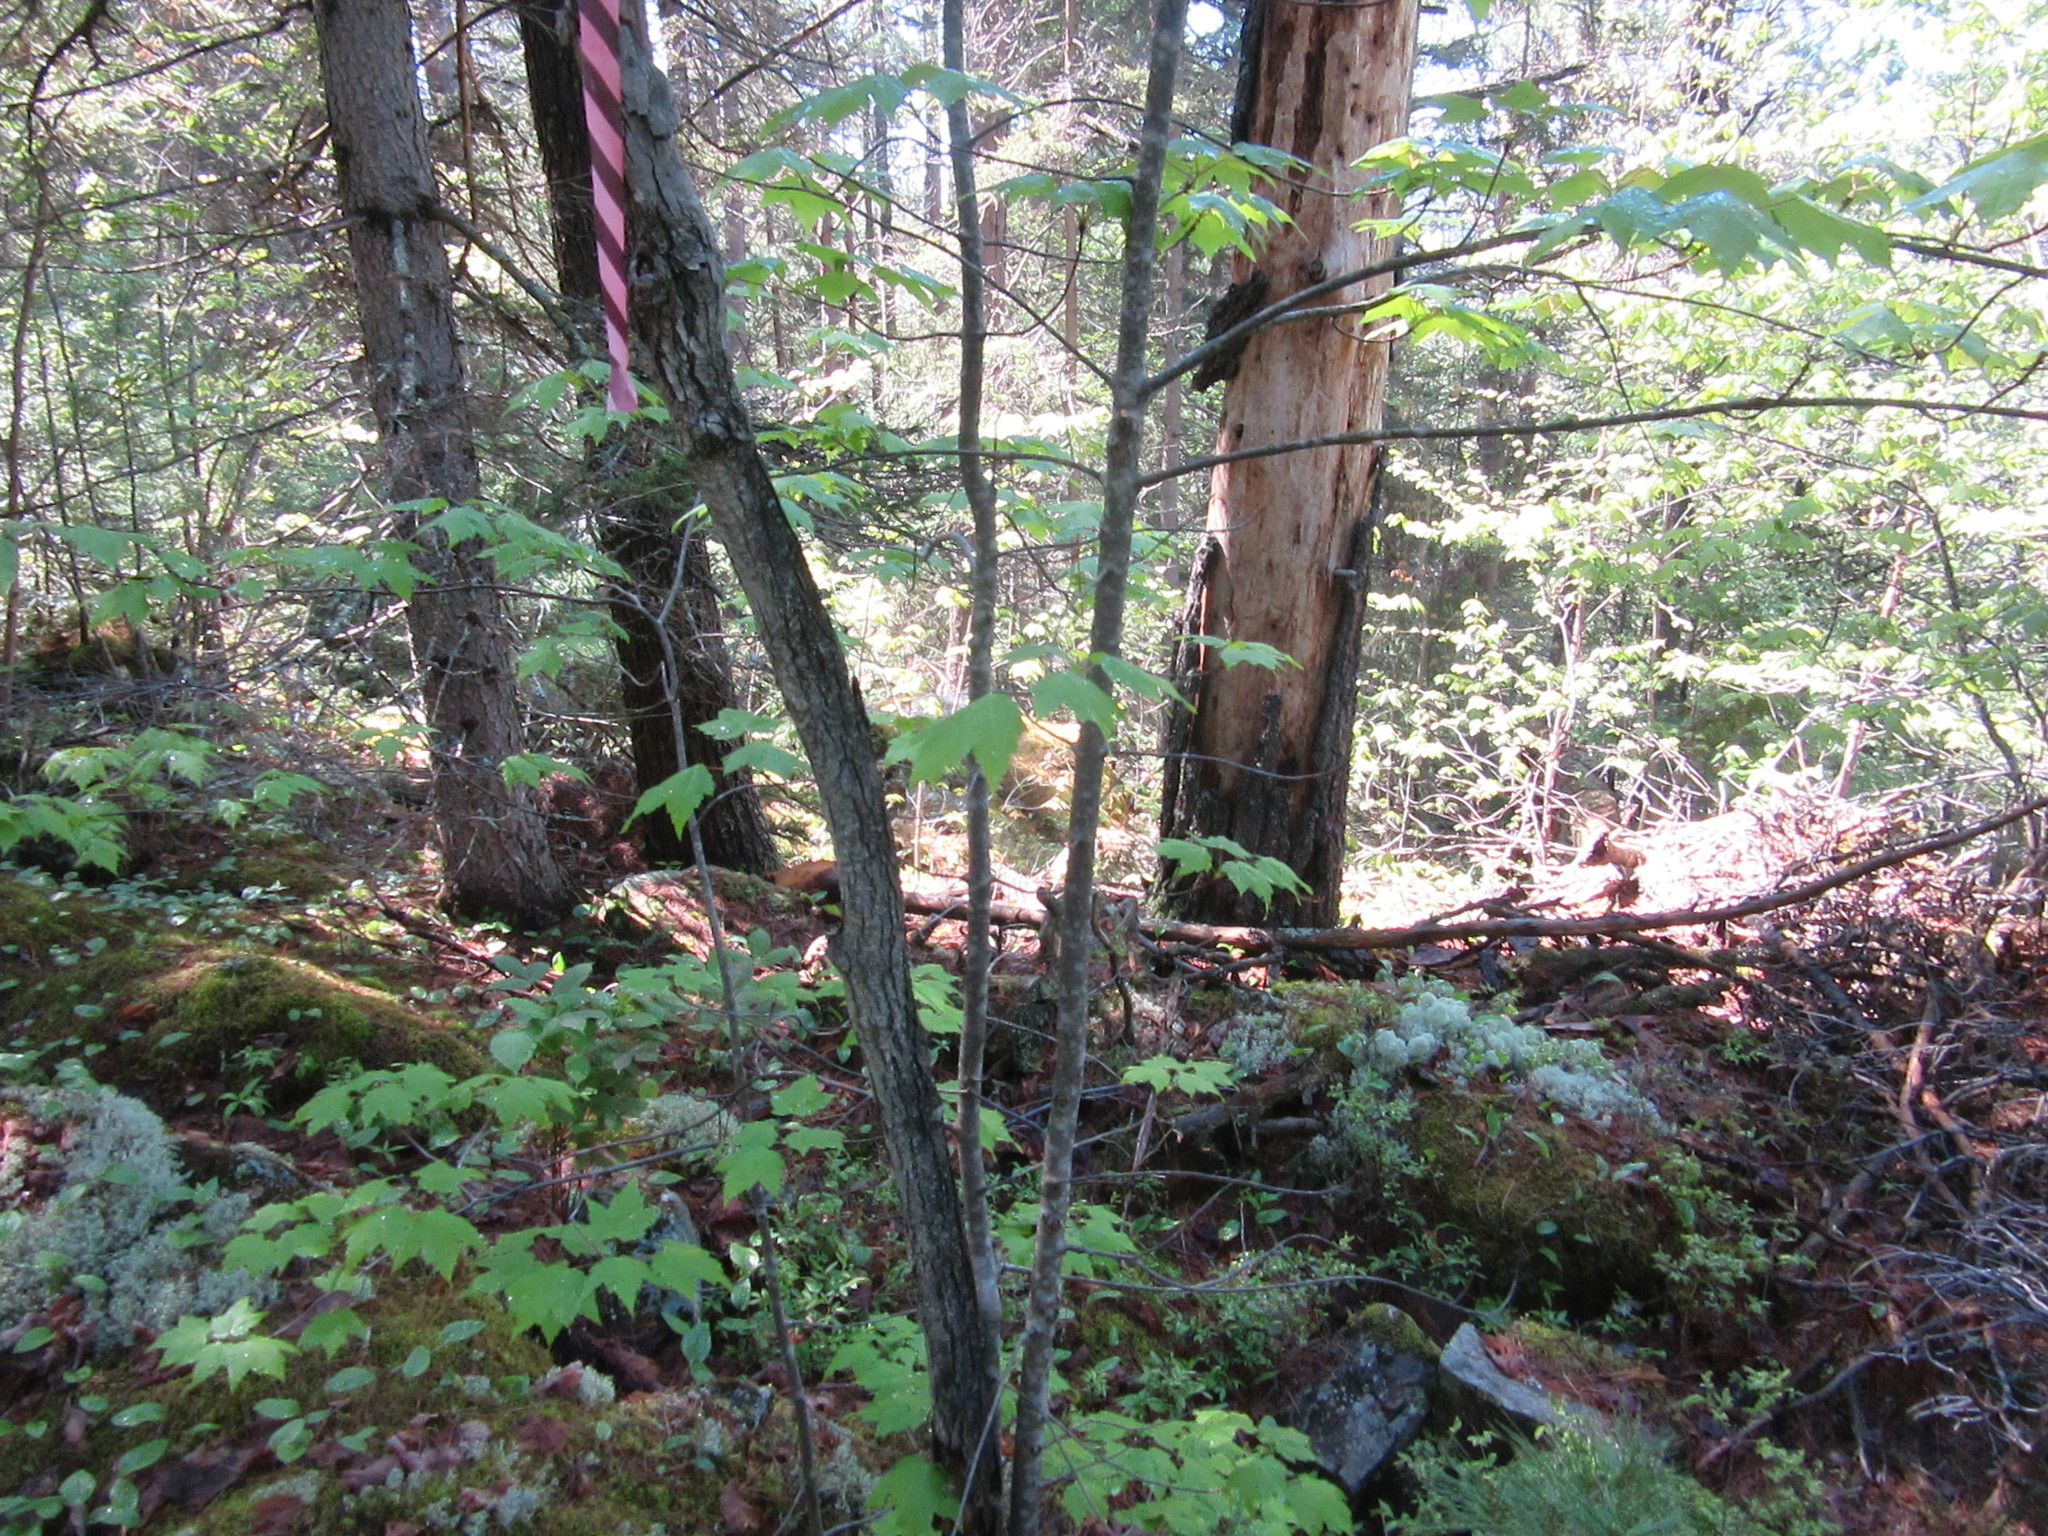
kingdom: Plantae
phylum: Tracheophyta
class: Magnoliopsida
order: Sapindales
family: Sapindaceae
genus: Acer
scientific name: Acer rubrum
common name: Red maple
